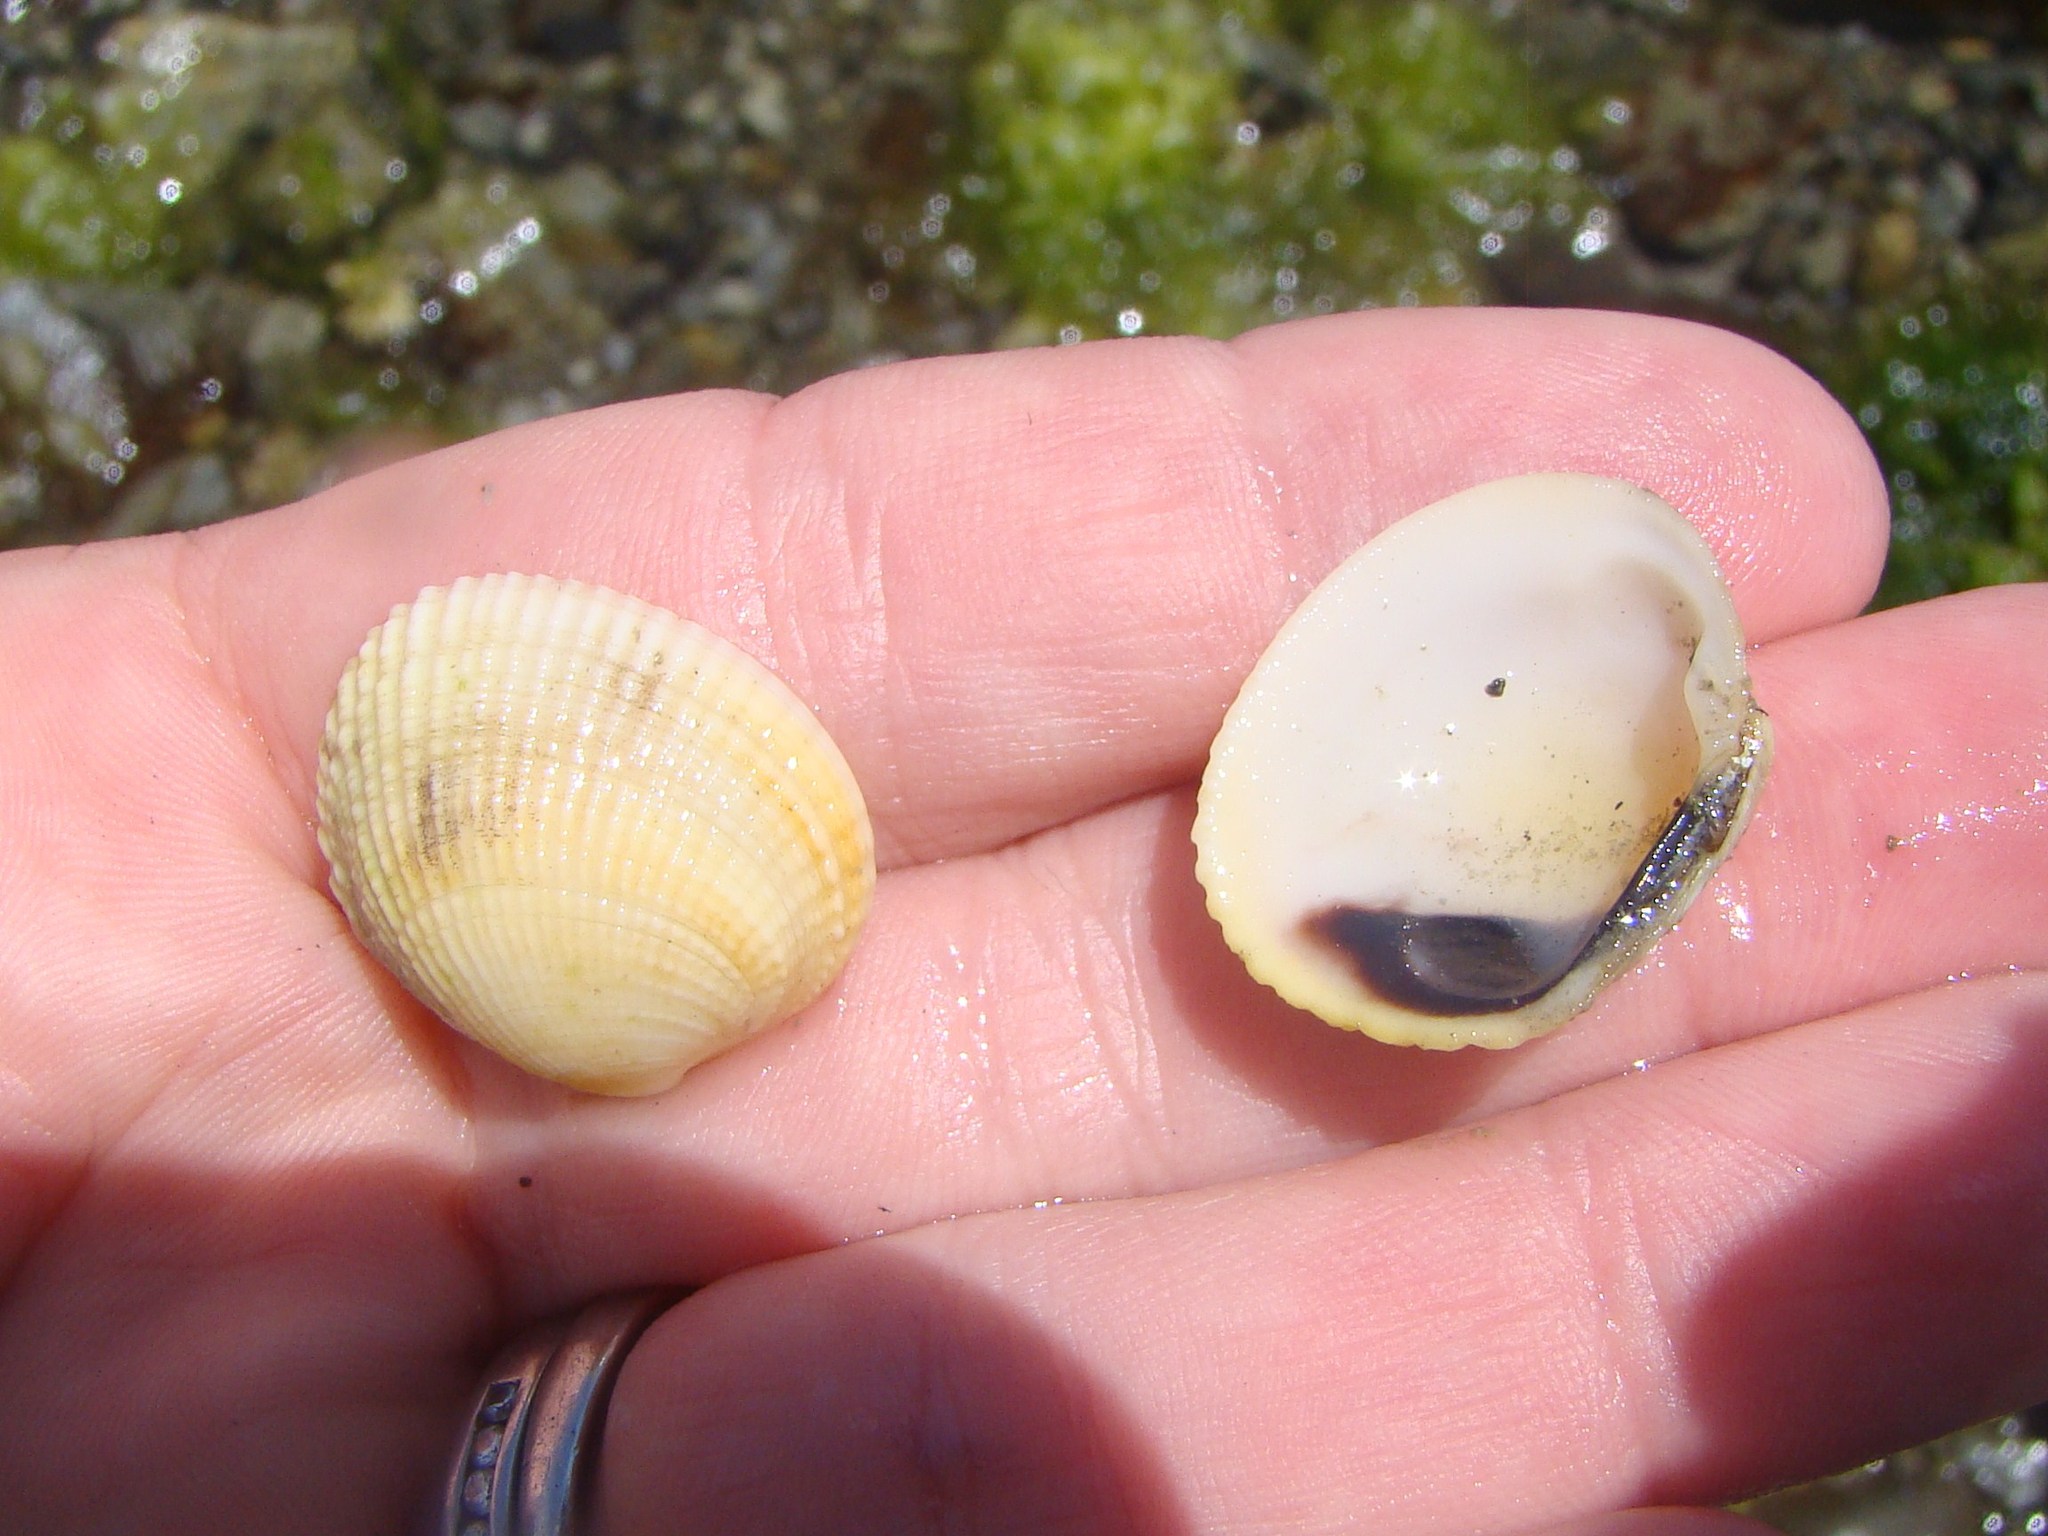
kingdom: Animalia
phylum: Mollusca
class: Bivalvia
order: Venerida
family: Veneridae
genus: Leukoma
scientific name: Leukoma crassicosta
